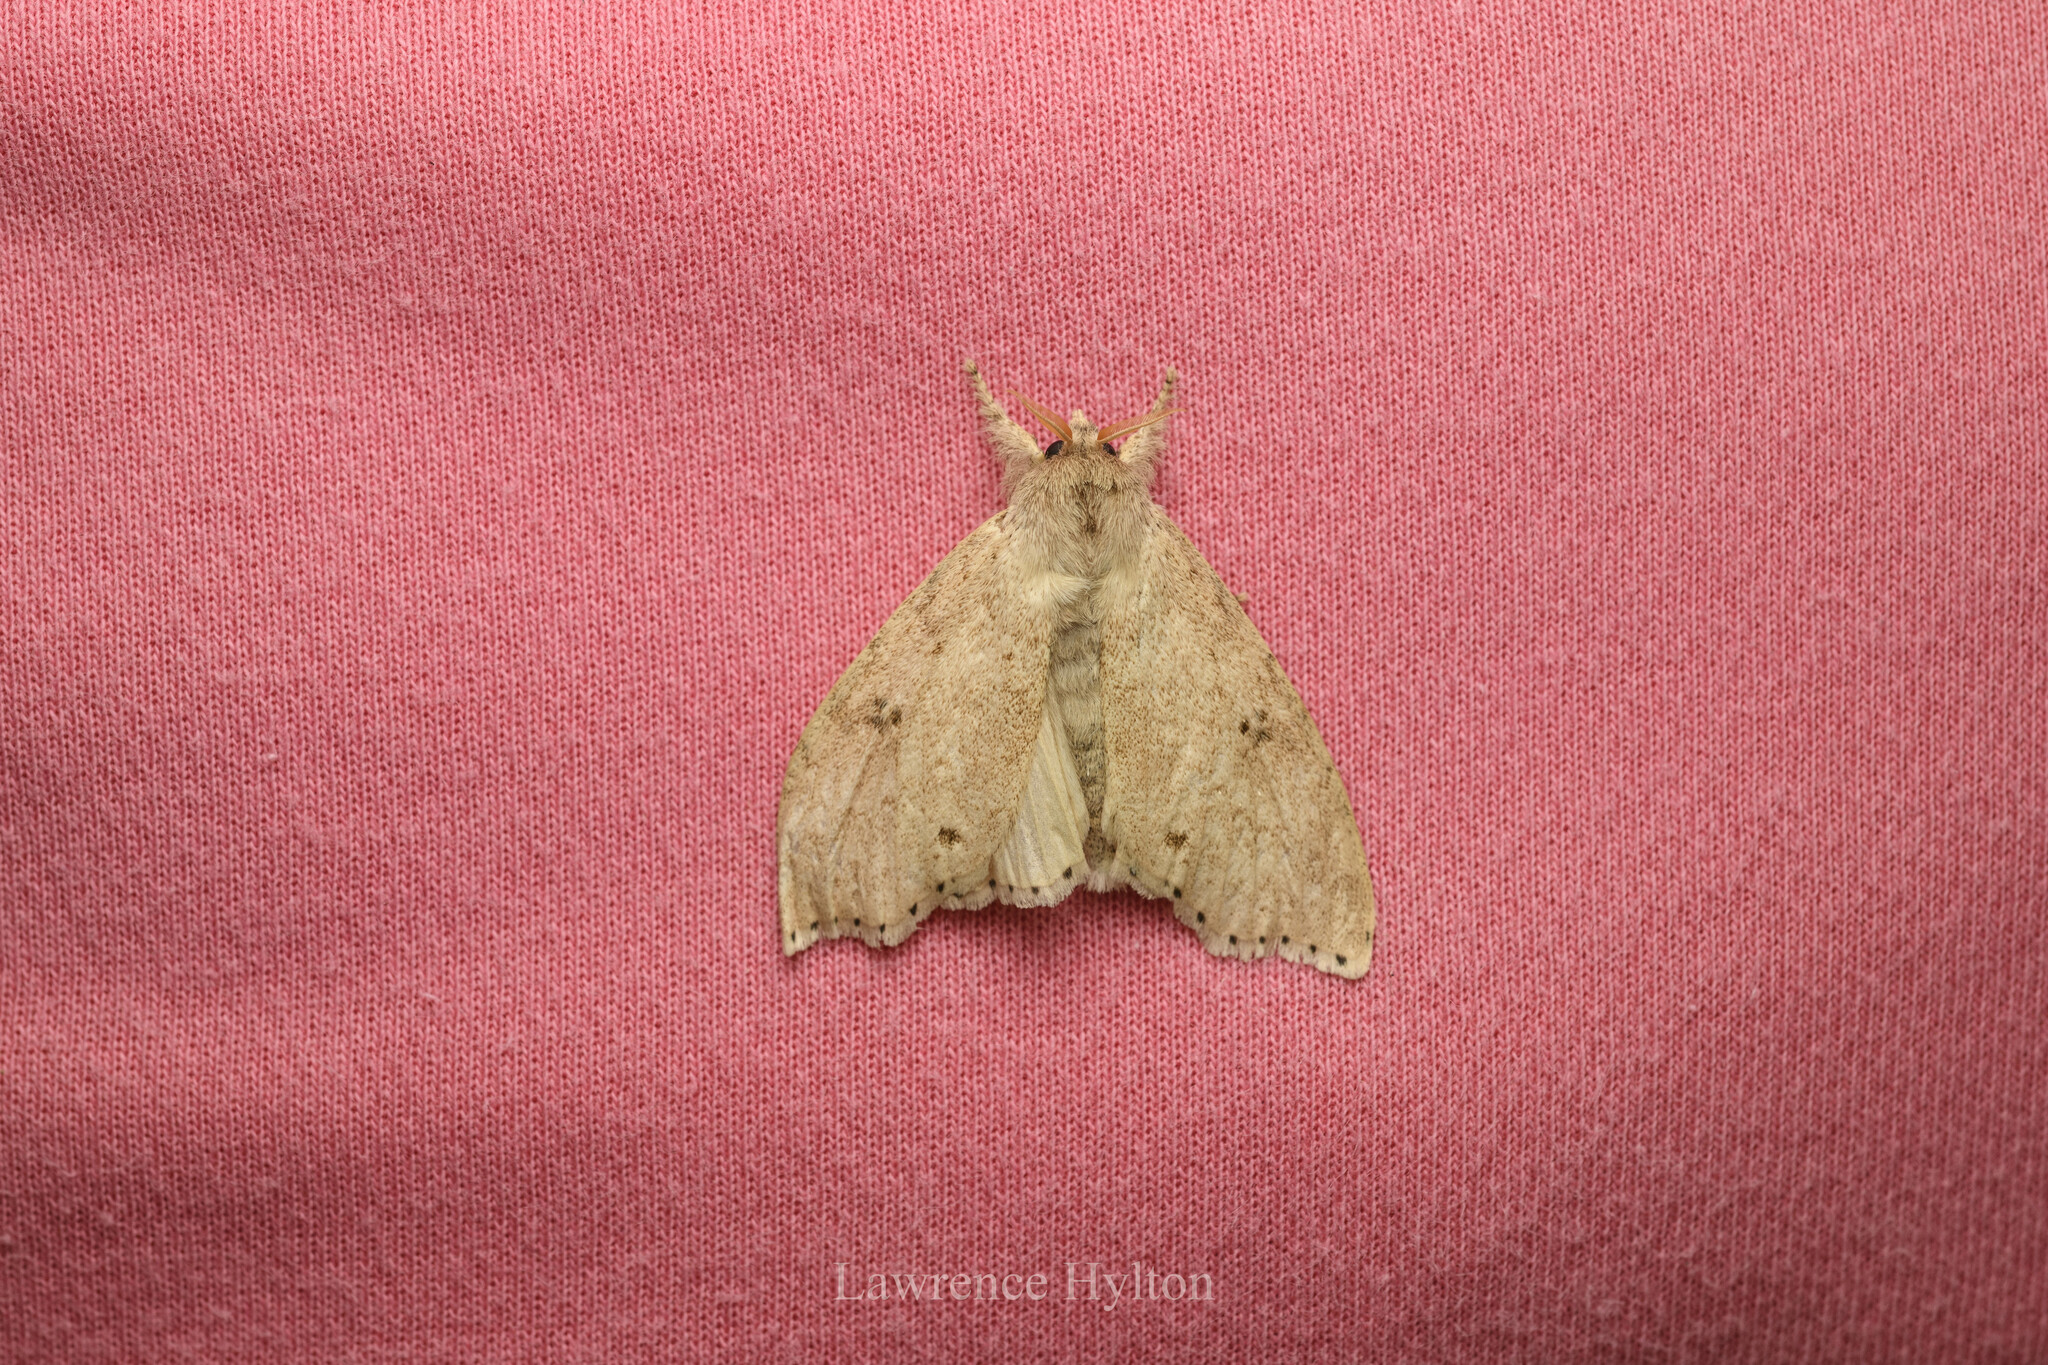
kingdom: Animalia
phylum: Arthropoda
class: Insecta
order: Lepidoptera
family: Erebidae
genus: Calliteara
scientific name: Calliteara angulata
